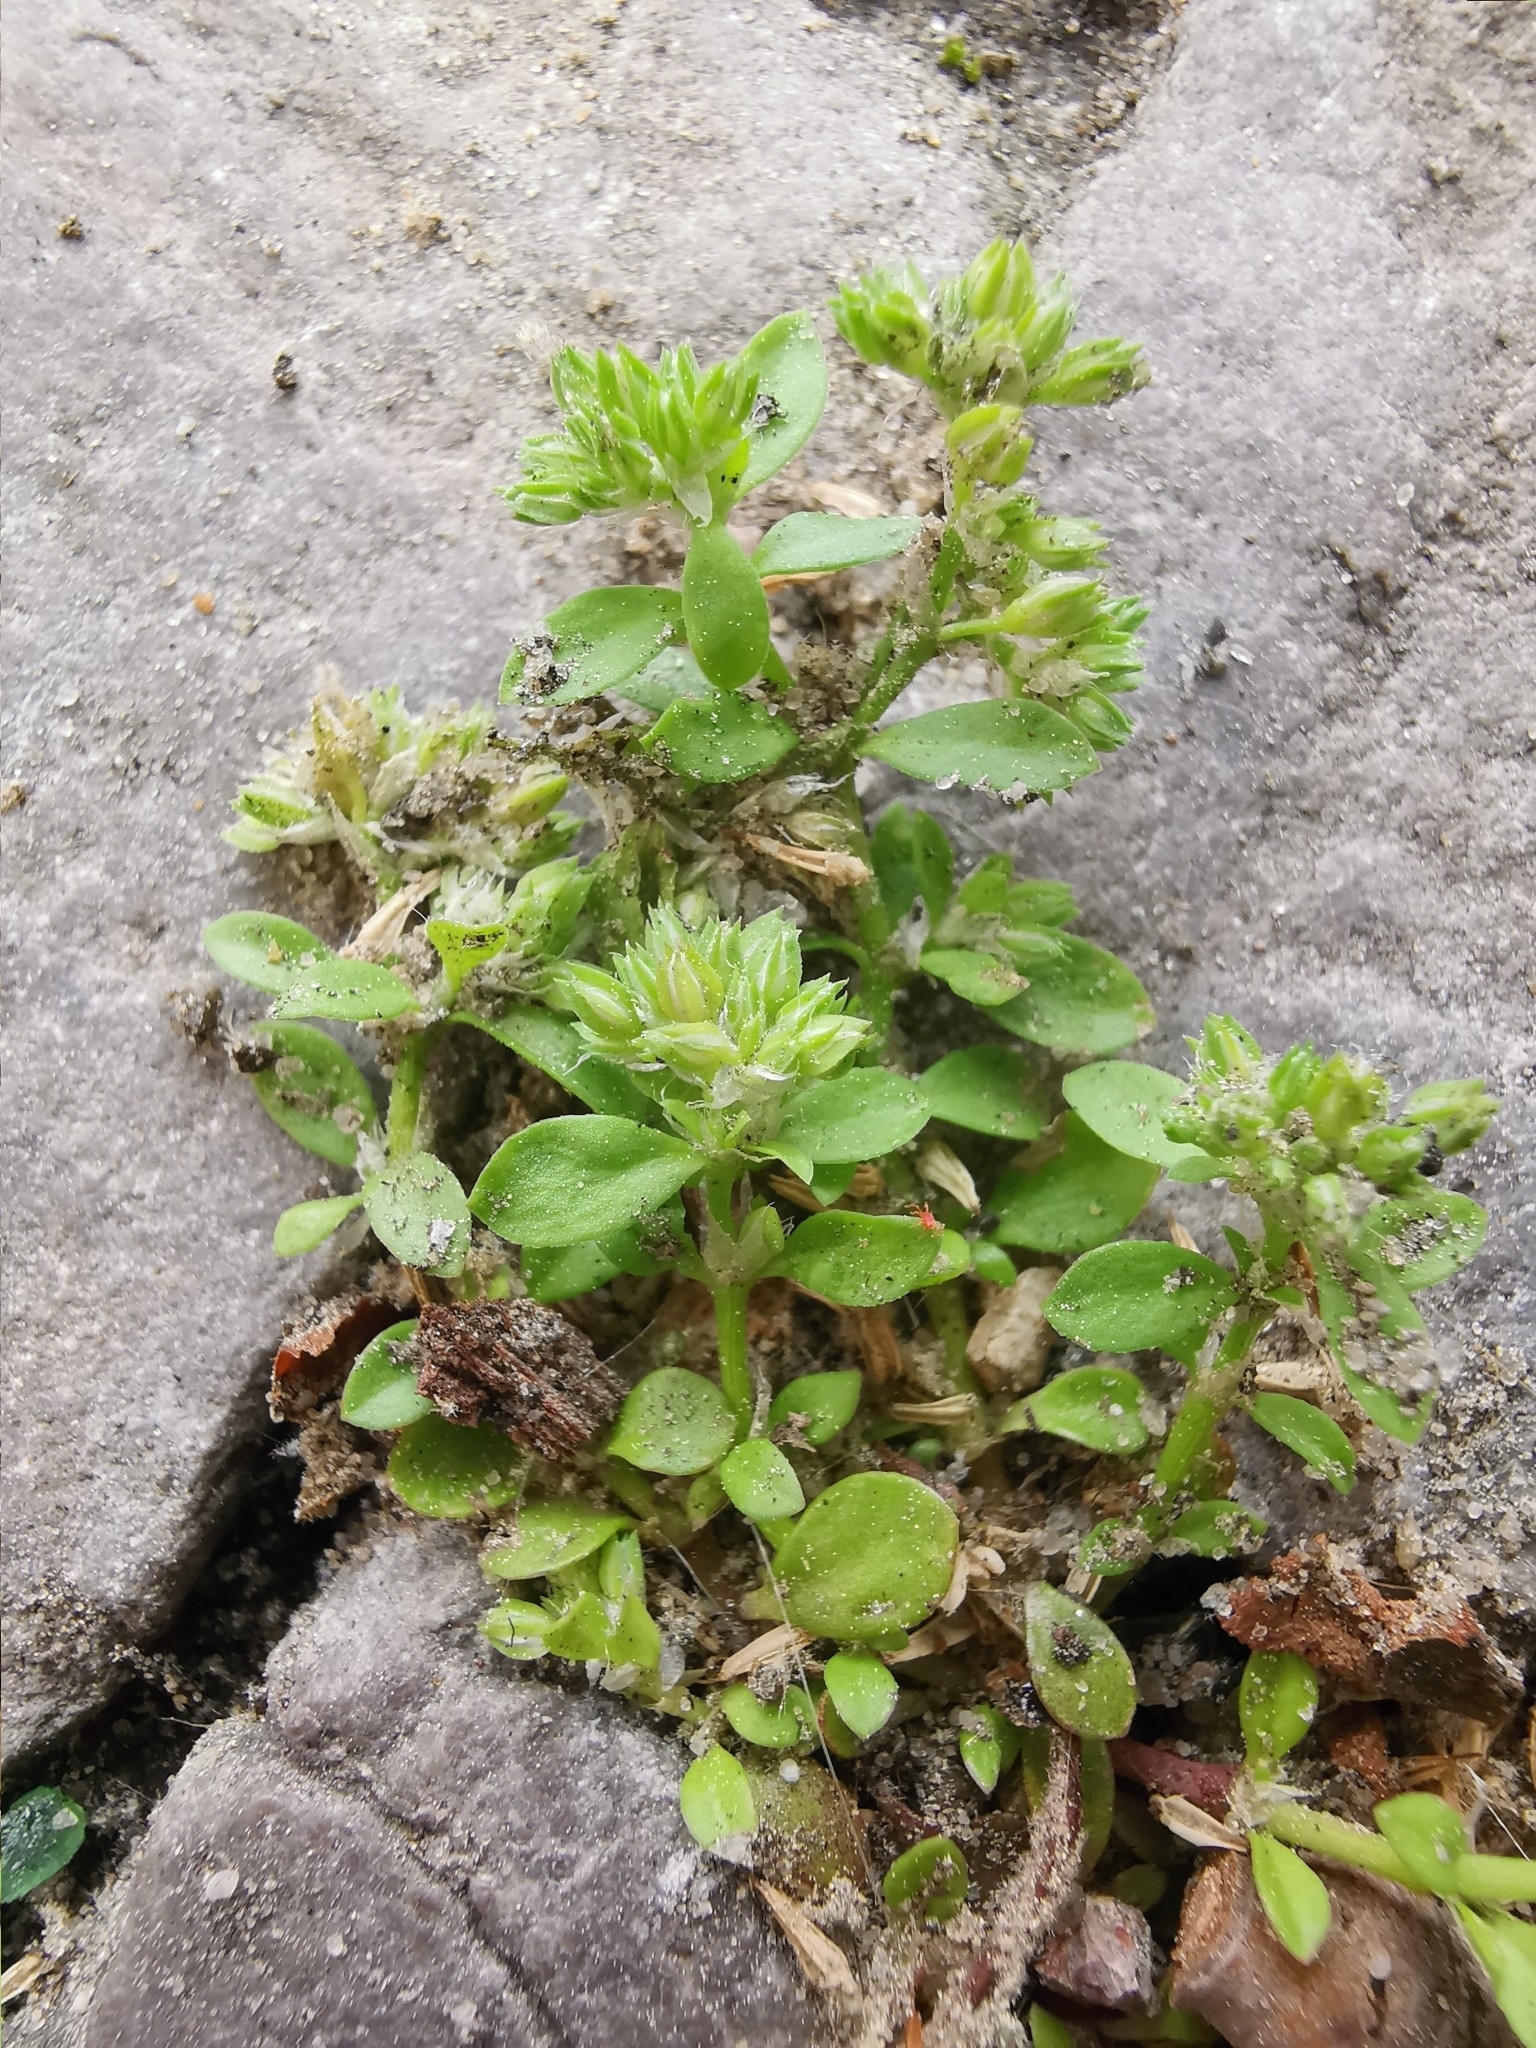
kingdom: Plantae
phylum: Tracheophyta
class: Magnoliopsida
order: Caryophyllales
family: Caryophyllaceae
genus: Polycarpon
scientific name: Polycarpon tetraphyllum
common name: Four-leaved all-seed
